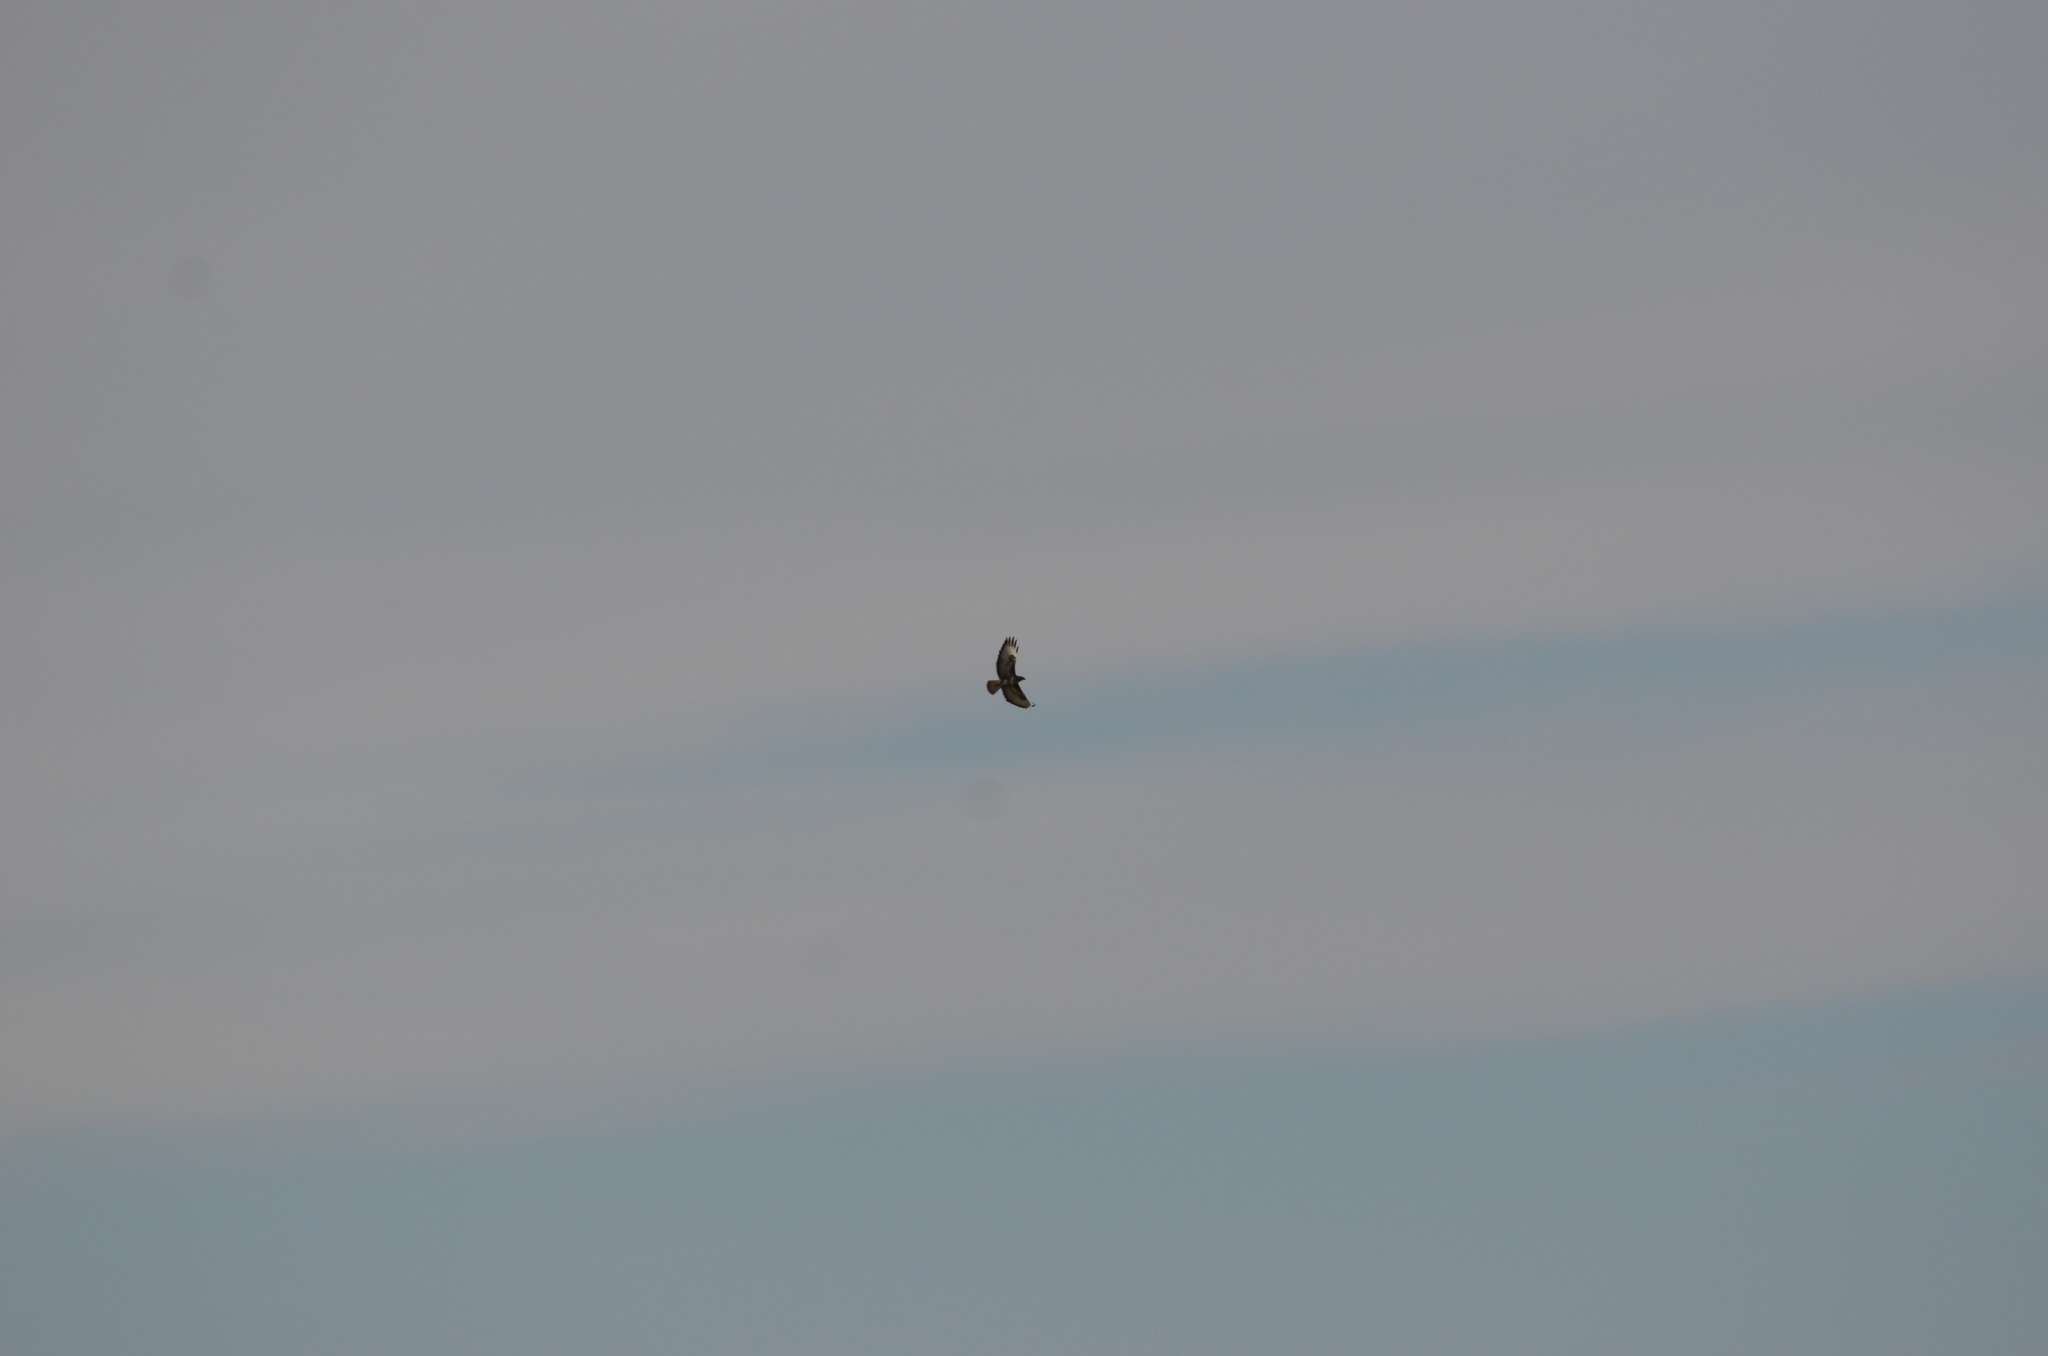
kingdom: Animalia
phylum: Chordata
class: Aves
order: Accipitriformes
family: Accipitridae
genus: Buteo
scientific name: Buteo buteo
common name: Common buzzard
